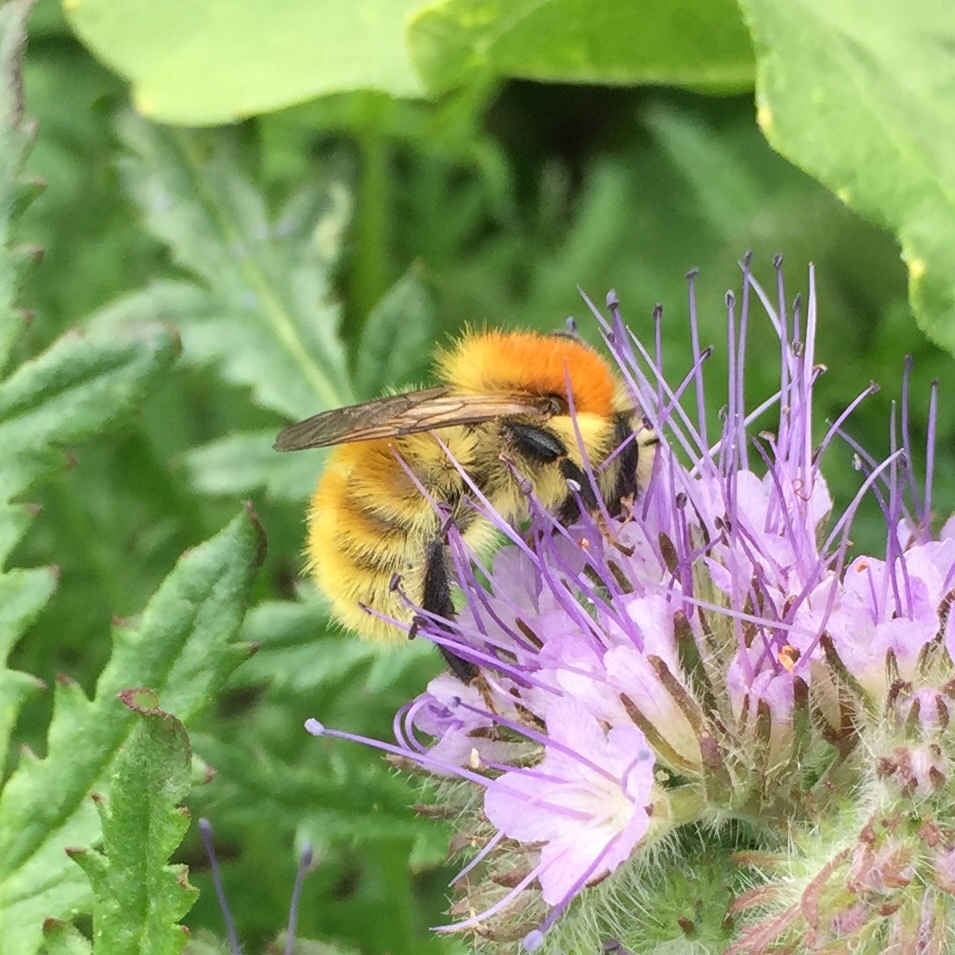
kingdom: Animalia
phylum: Arthropoda
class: Insecta
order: Hymenoptera
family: Apidae
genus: Bombus
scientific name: Bombus muscorum
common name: Moss carder-bee
